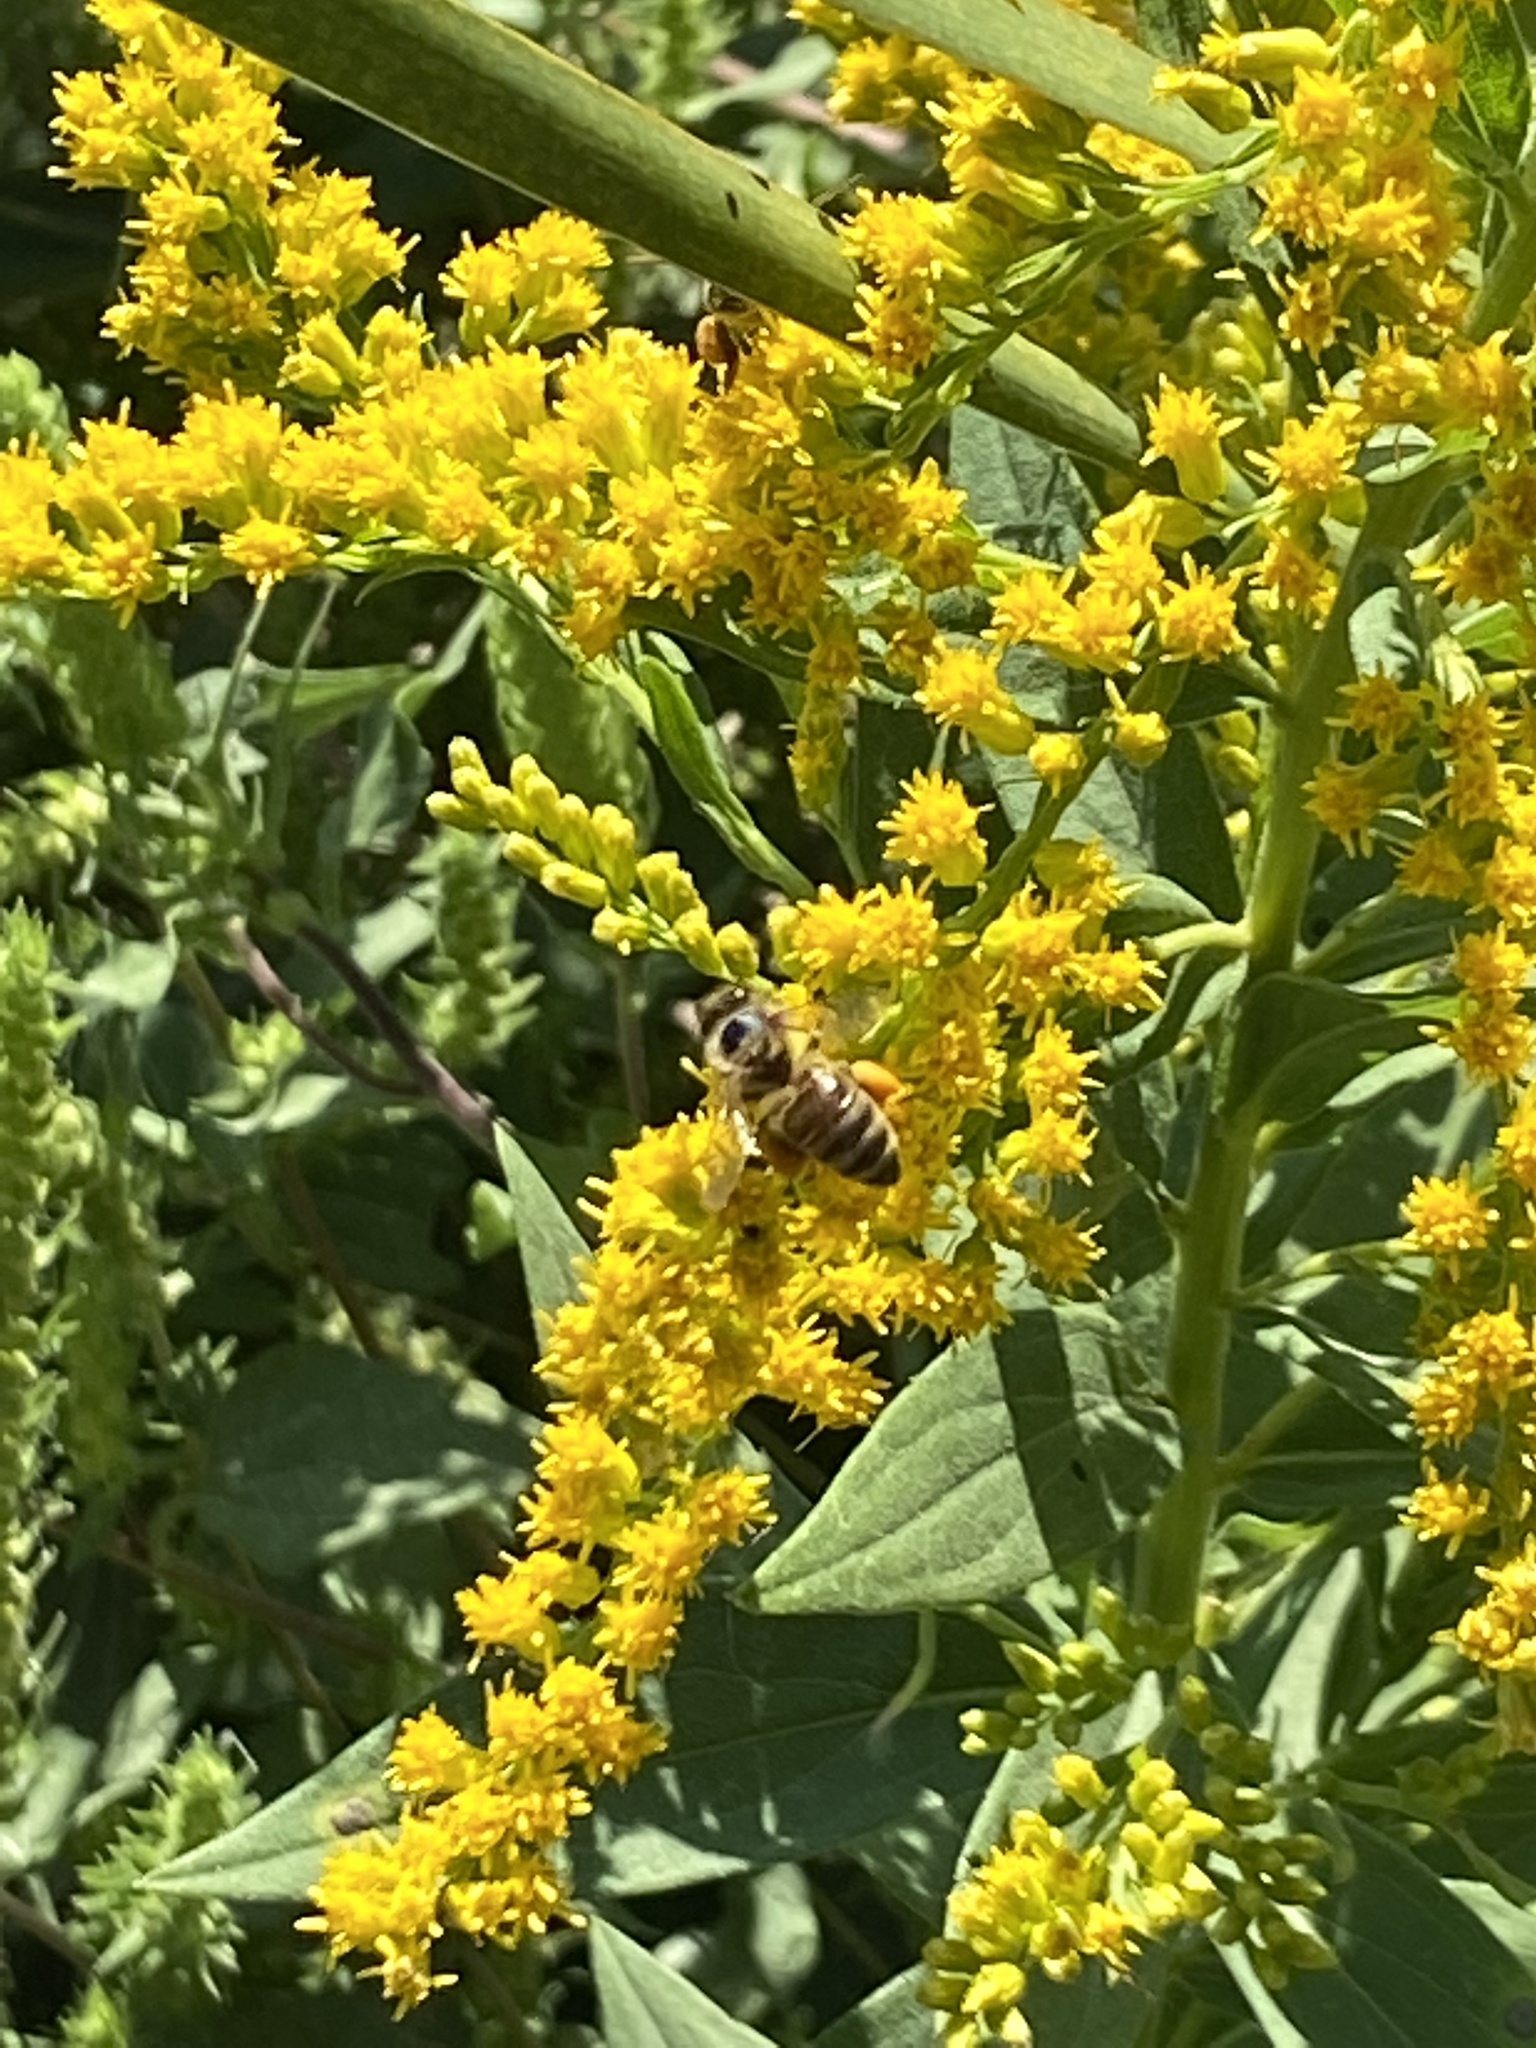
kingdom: Animalia
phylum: Arthropoda
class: Insecta
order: Hymenoptera
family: Apidae
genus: Apis
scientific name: Apis mellifera
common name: Honey bee
